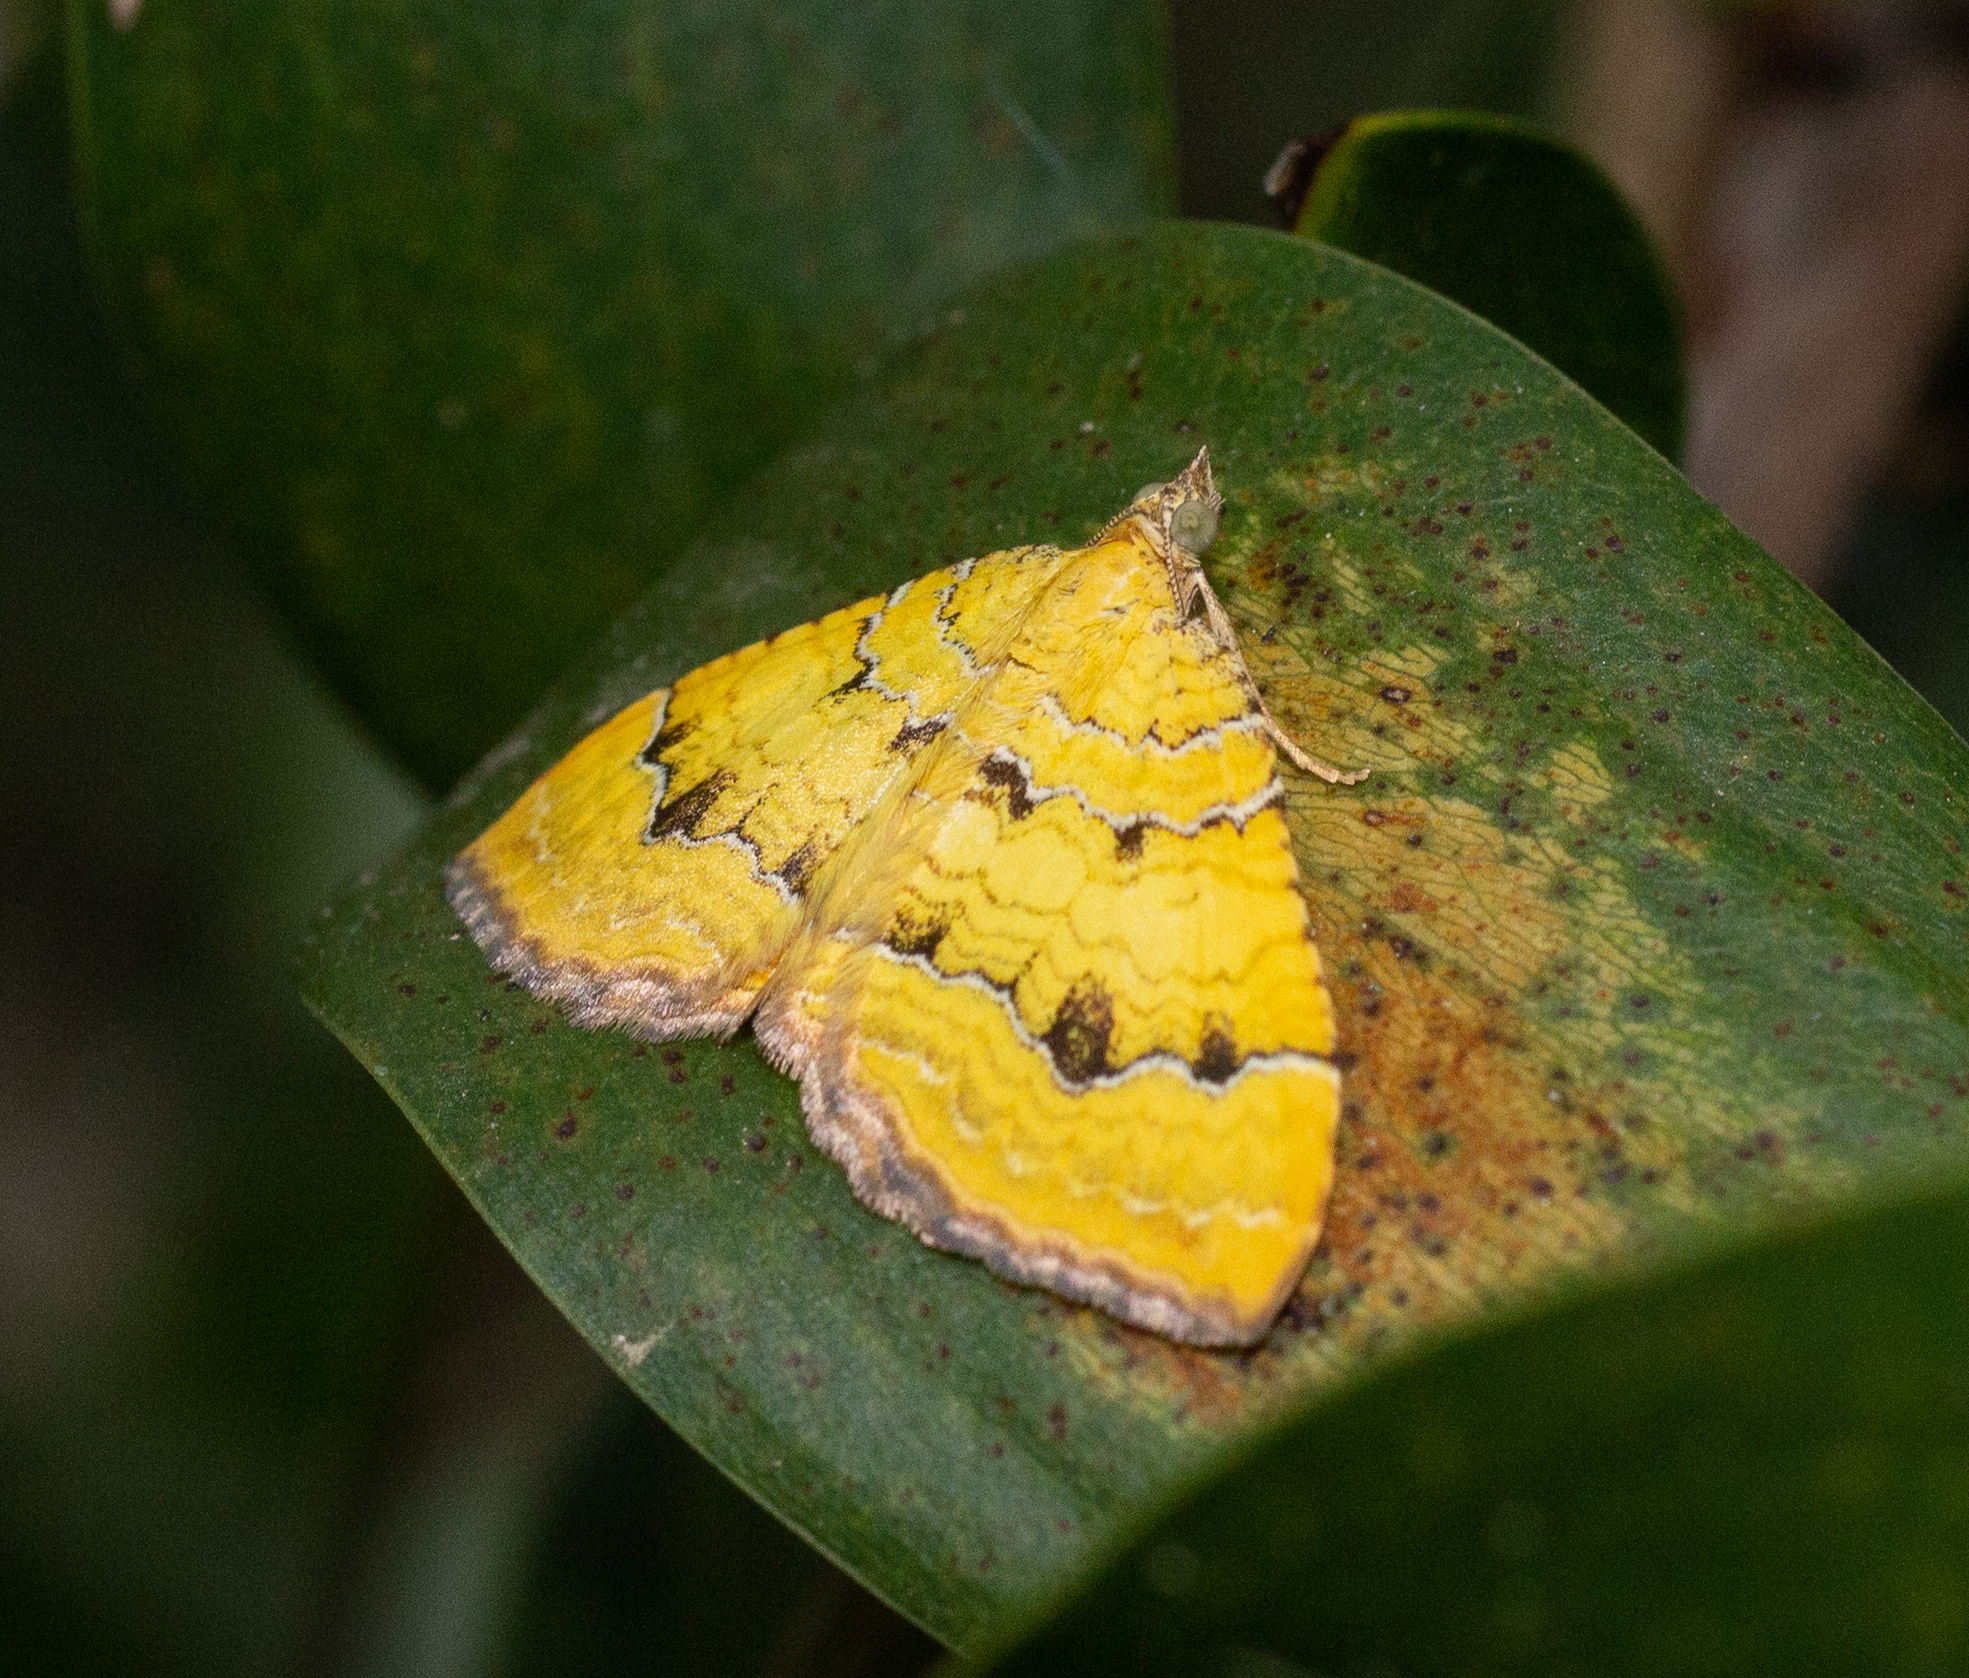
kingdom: Animalia
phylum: Arthropoda
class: Insecta
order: Lepidoptera
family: Geometridae
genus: Camptogramma
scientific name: Camptogramma bilineata
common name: Yellow shell
